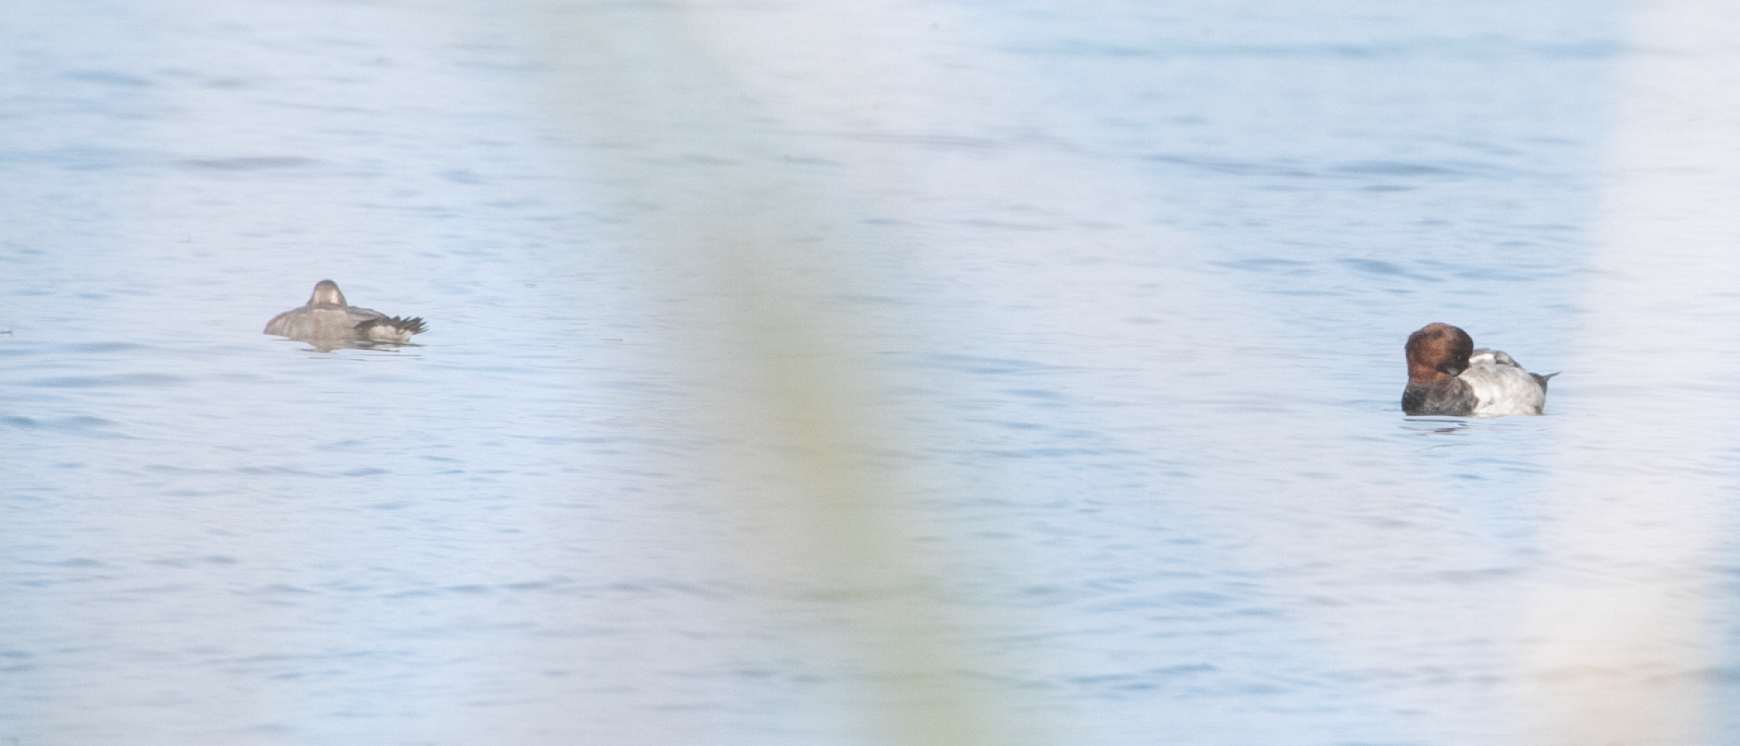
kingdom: Animalia
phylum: Chordata
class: Aves
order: Anseriformes
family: Anatidae
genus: Aythya
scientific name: Aythya ferina
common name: Common pochard
